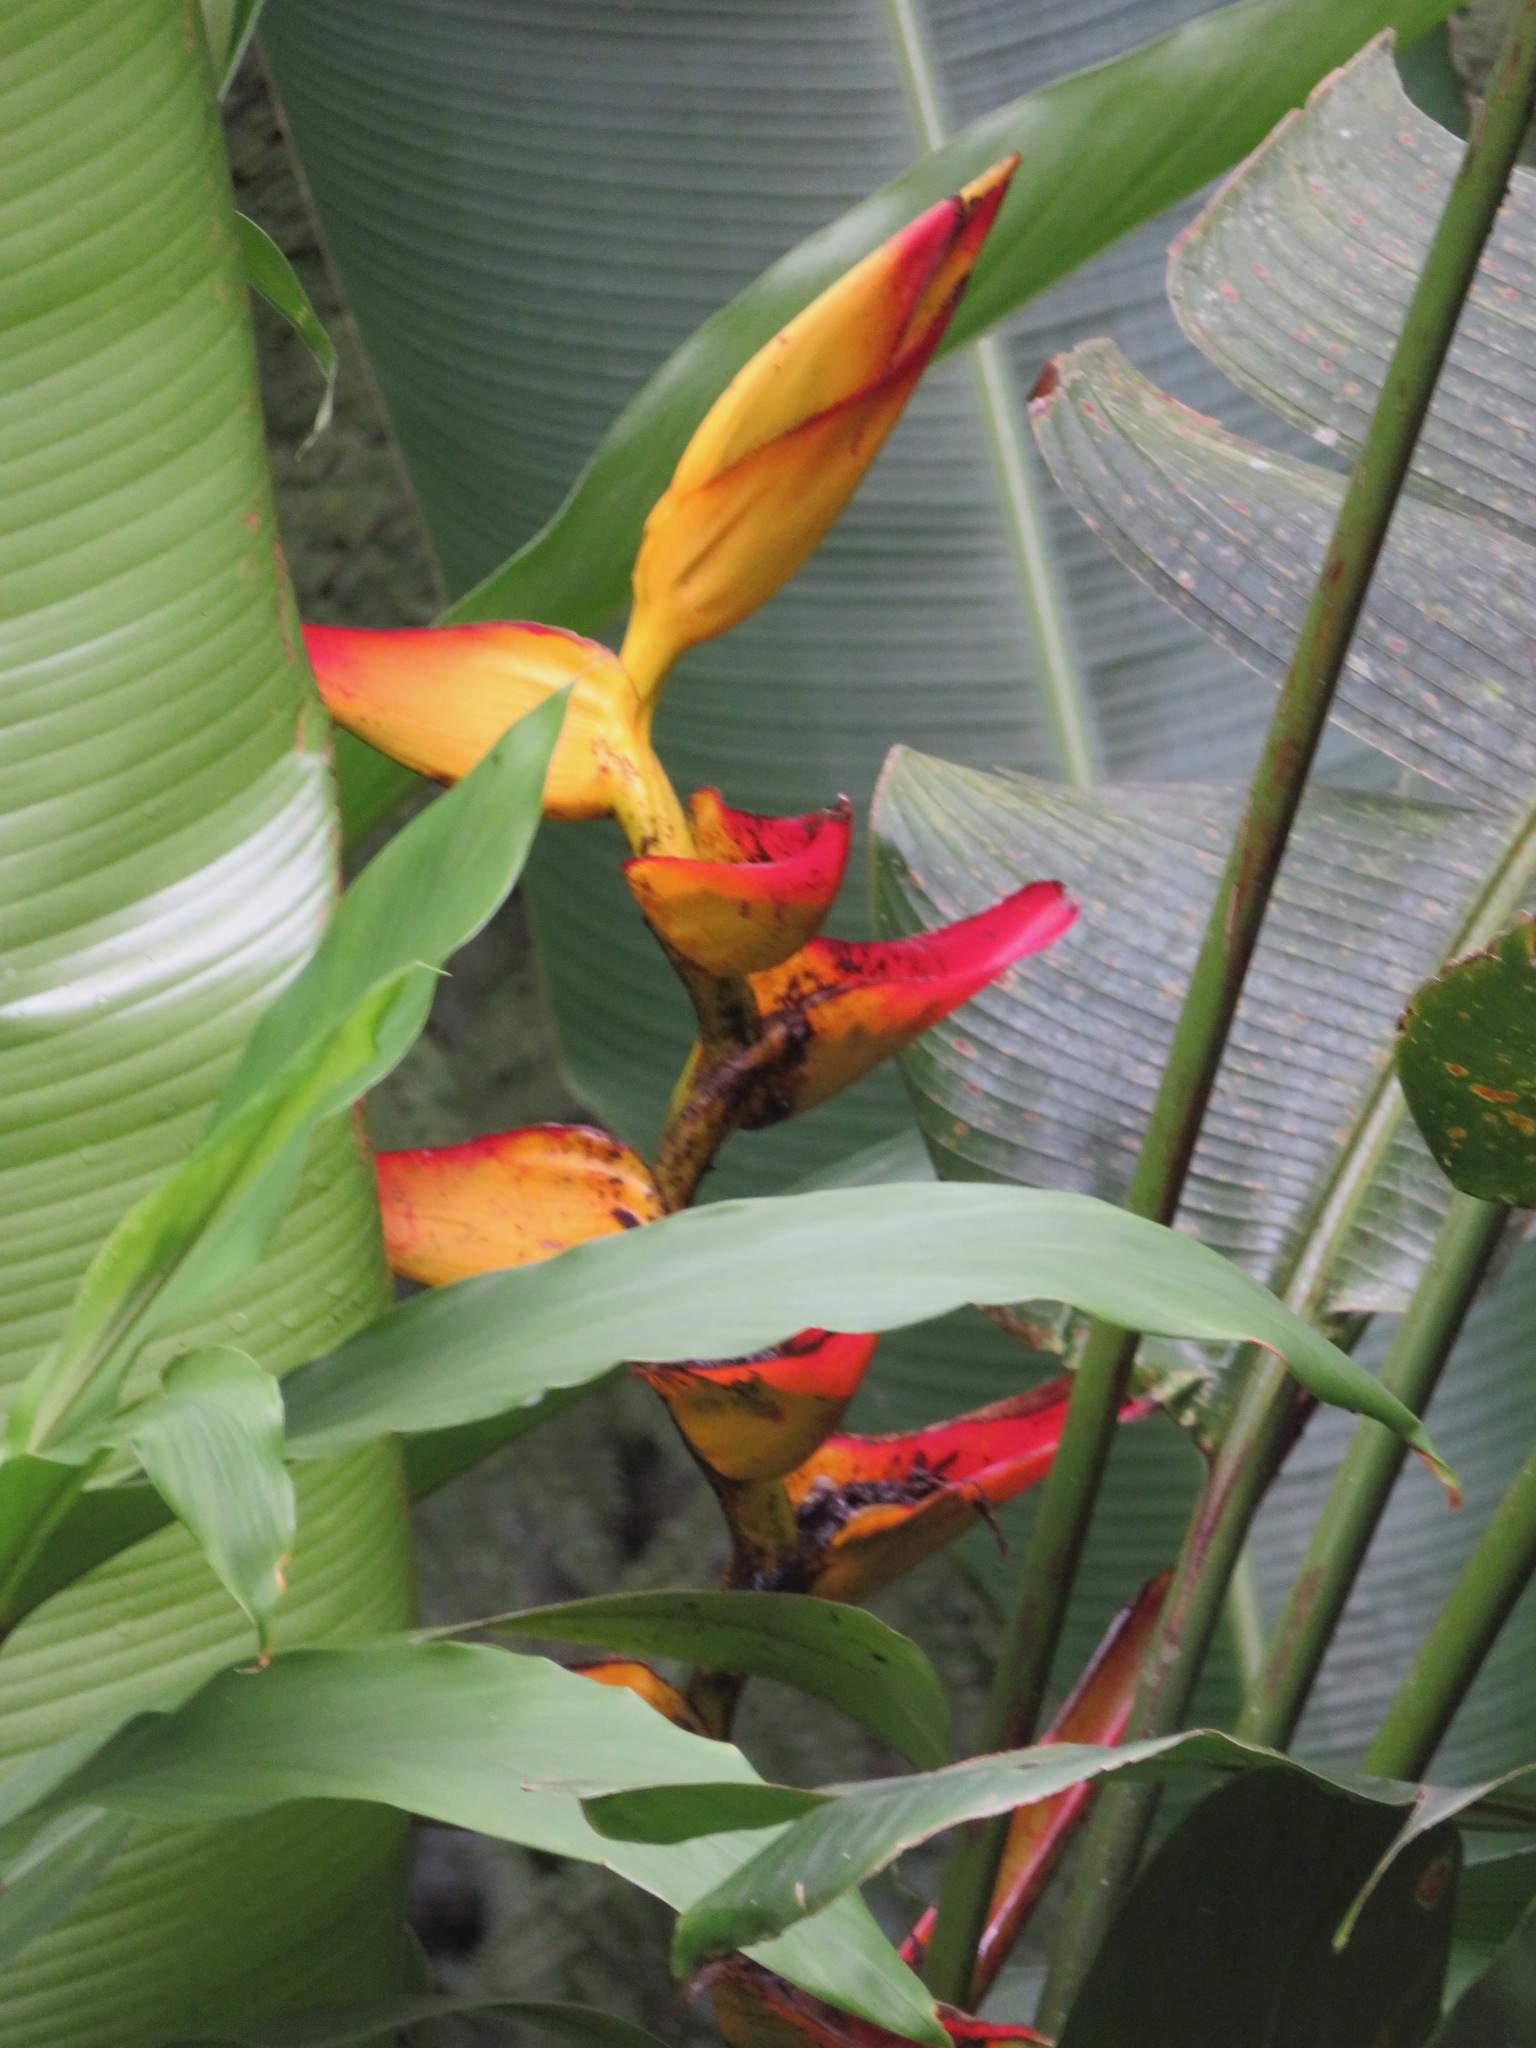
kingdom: Plantae
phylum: Tracheophyta
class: Liliopsida
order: Zingiberales
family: Heliconiaceae
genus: Heliconia
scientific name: Heliconia tortuosa
